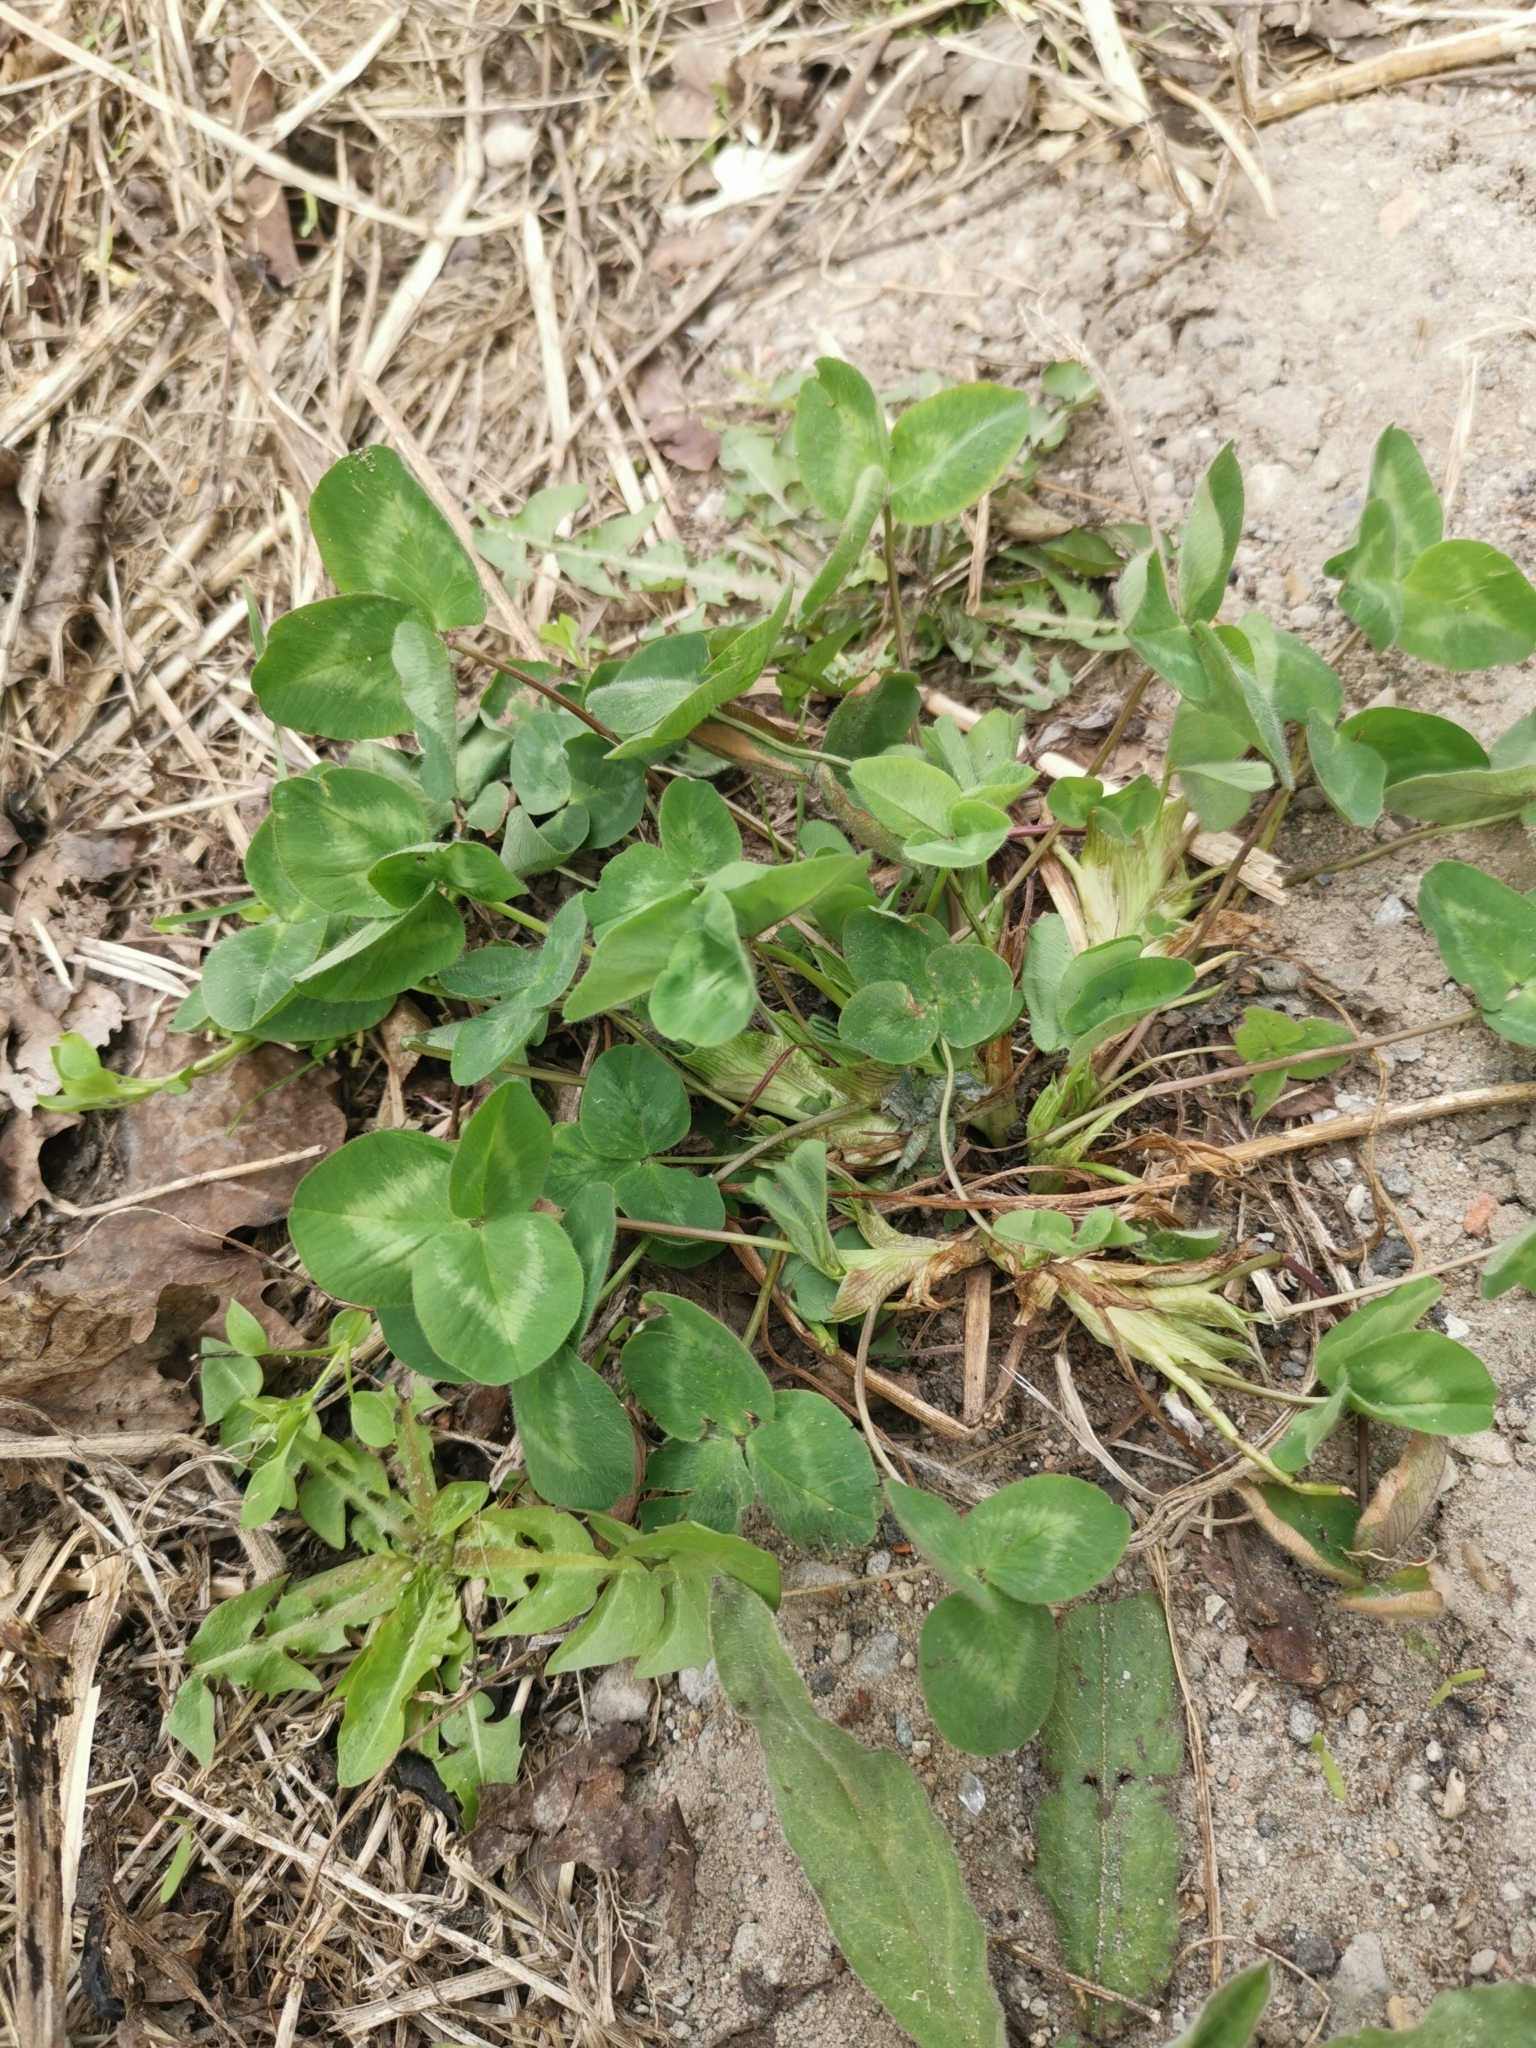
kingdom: Plantae
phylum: Tracheophyta
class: Magnoliopsida
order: Fabales
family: Fabaceae
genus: Trifolium
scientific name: Trifolium pratense
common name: Red clover
